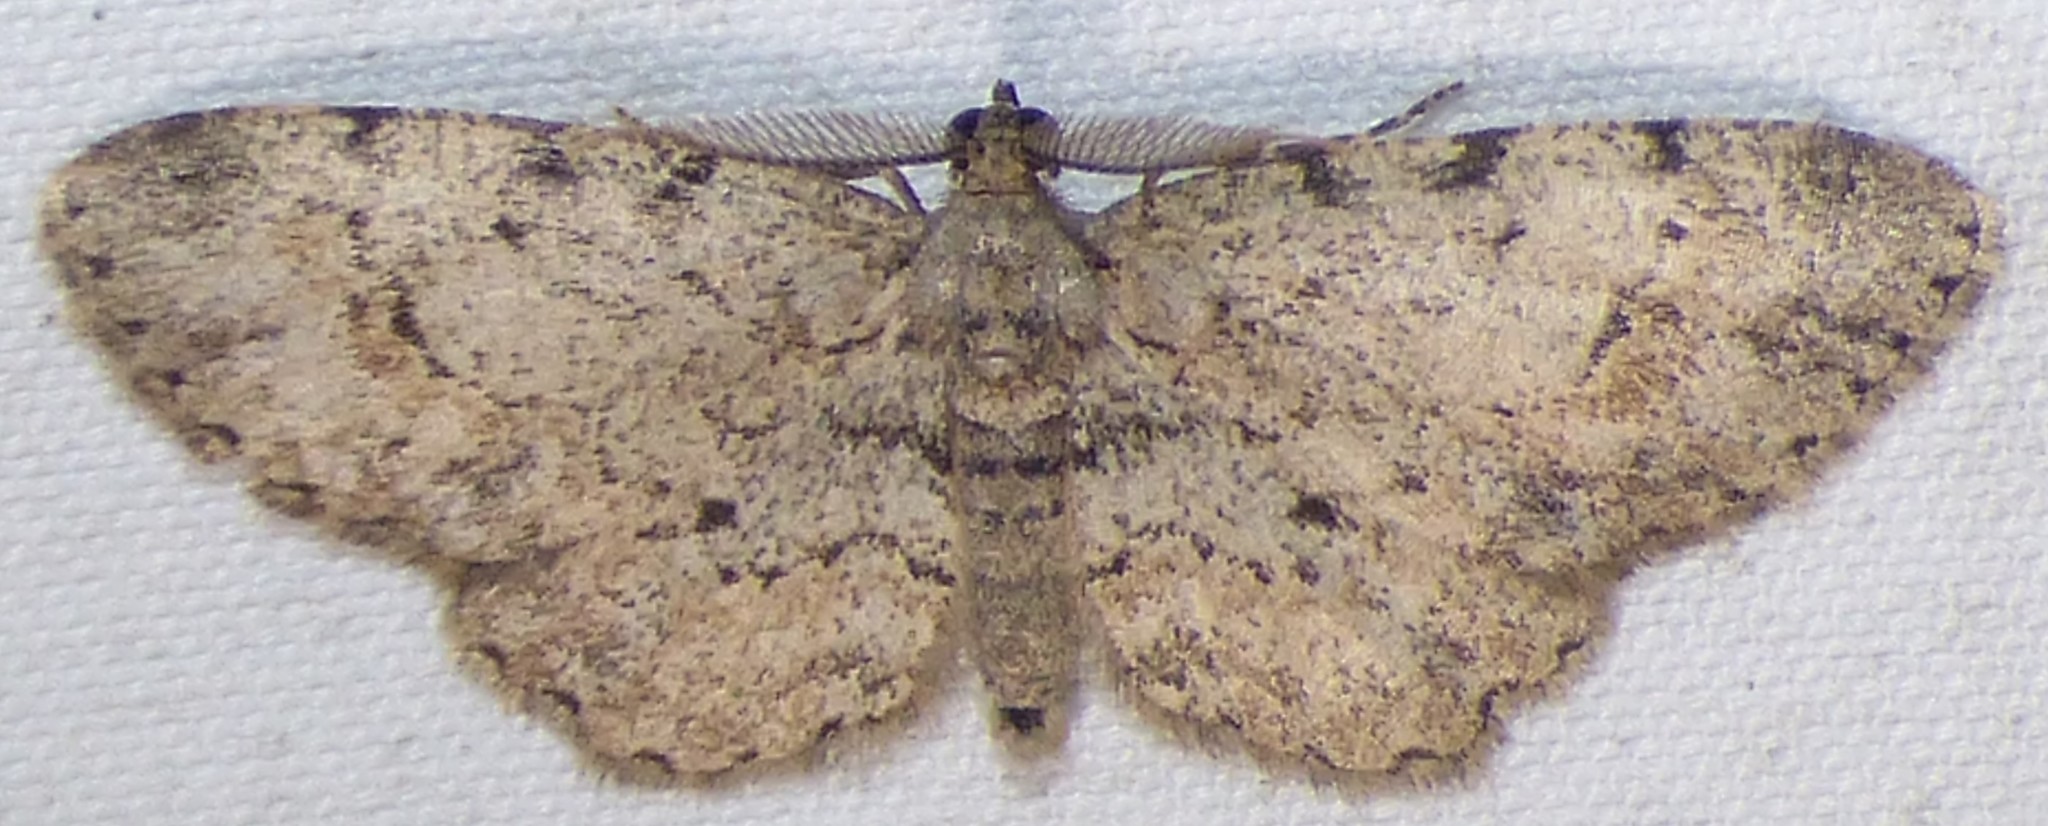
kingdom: Animalia
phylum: Arthropoda
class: Insecta
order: Lepidoptera
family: Geometridae
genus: Glenoides
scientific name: Glenoides texanaria
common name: Texas gray
